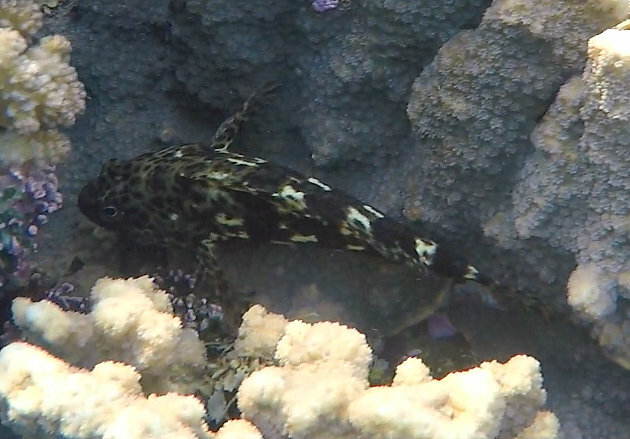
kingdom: Animalia
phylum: Chordata
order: Perciformes
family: Cirrhitidae
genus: Cirrhitus
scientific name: Cirrhitus pinnulatus
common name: Stocky hawkfish
